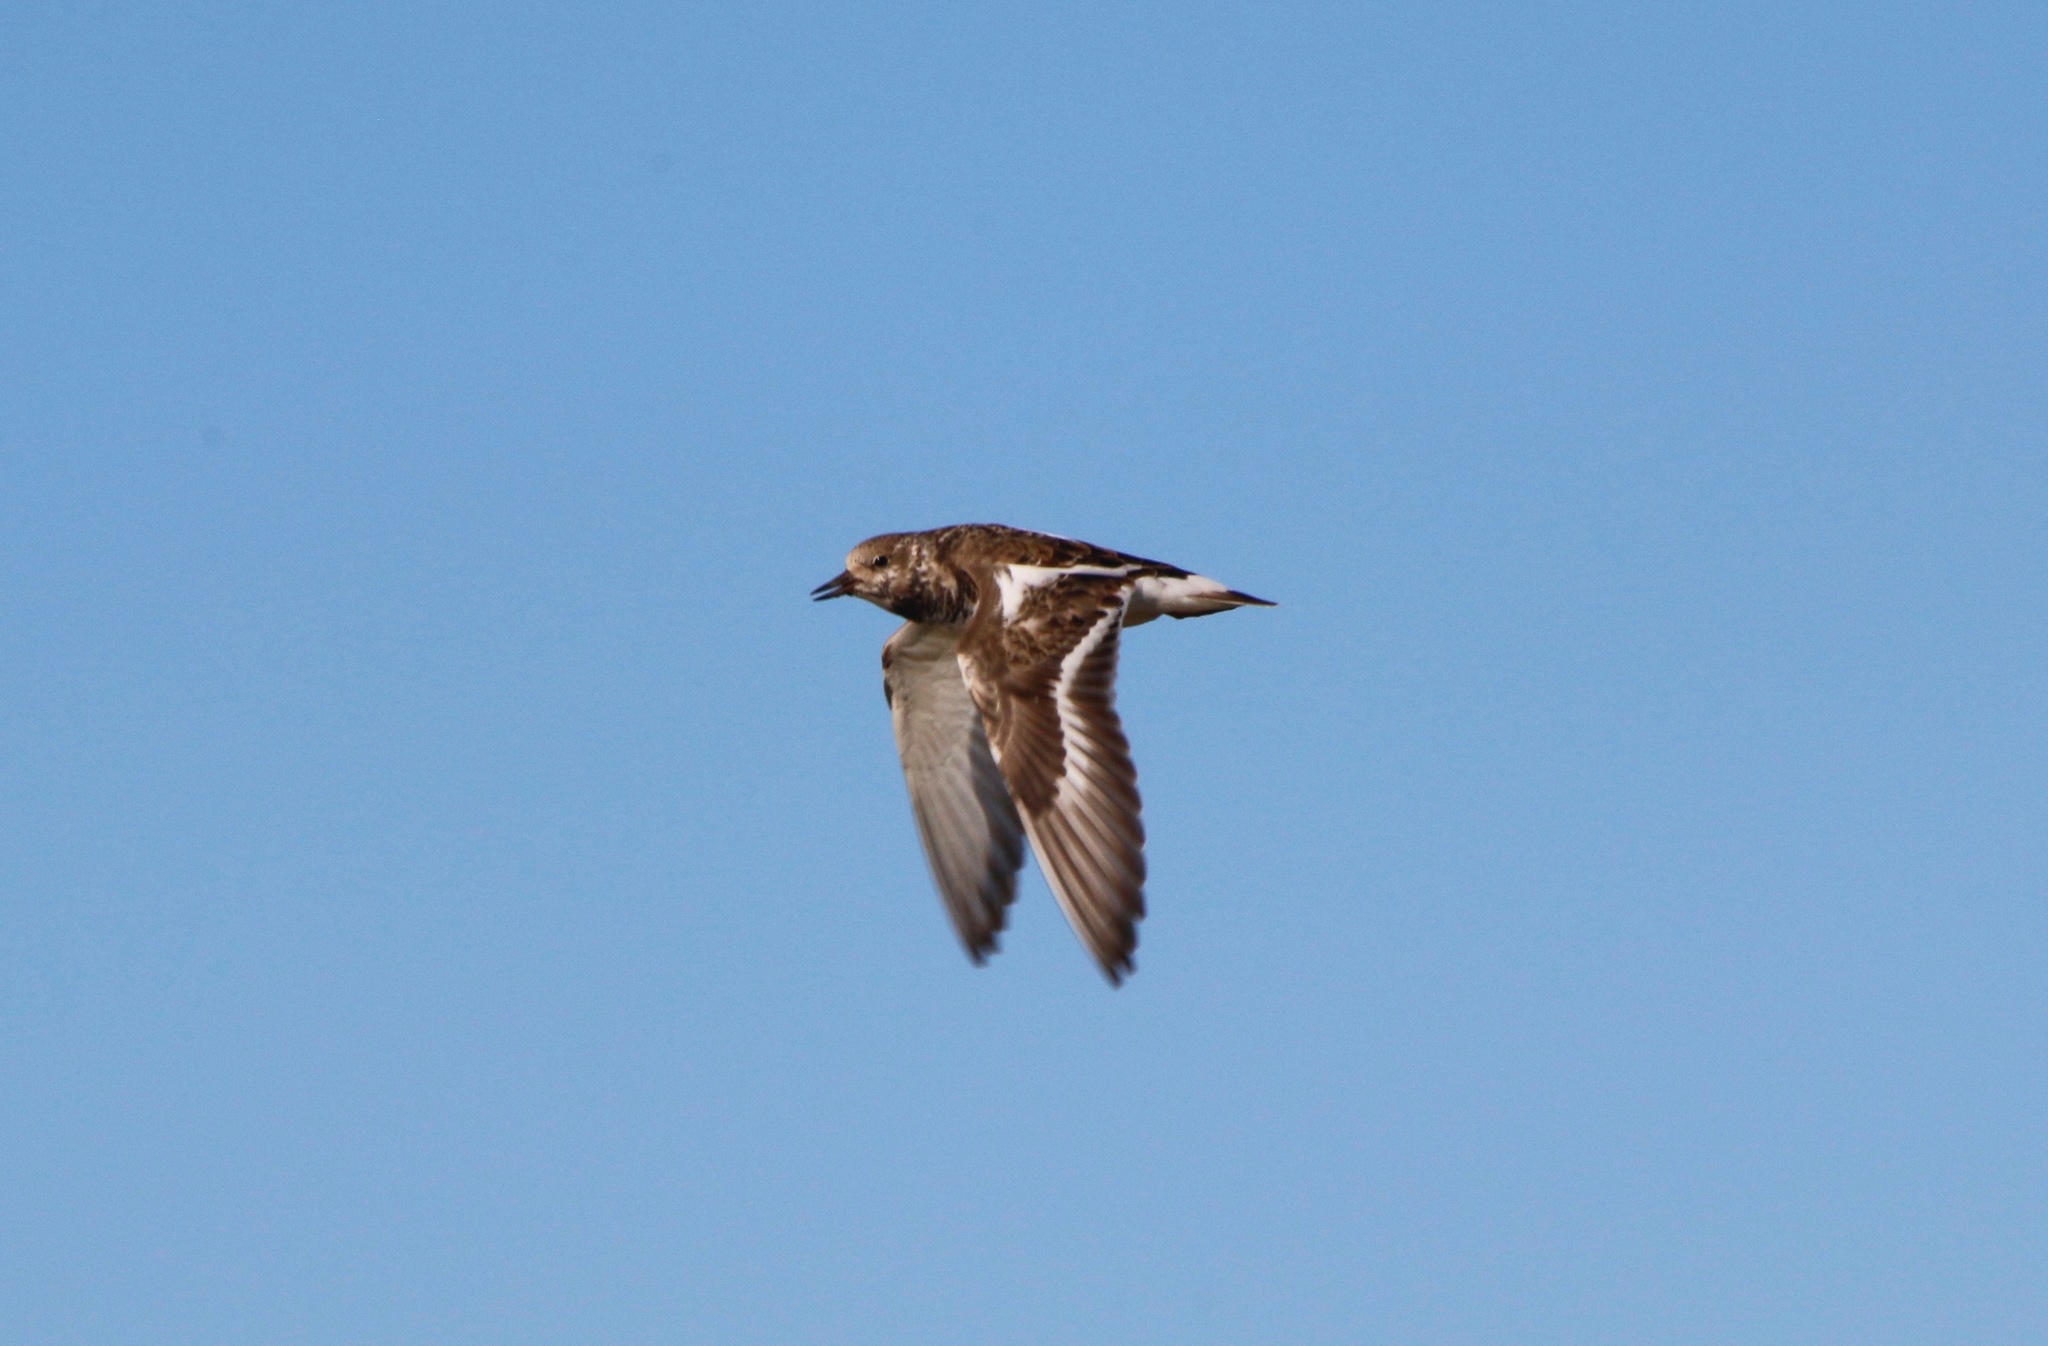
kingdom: Animalia
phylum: Chordata
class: Aves
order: Charadriiformes
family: Scolopacidae
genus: Arenaria
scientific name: Arenaria interpres
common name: Ruddy turnstone
